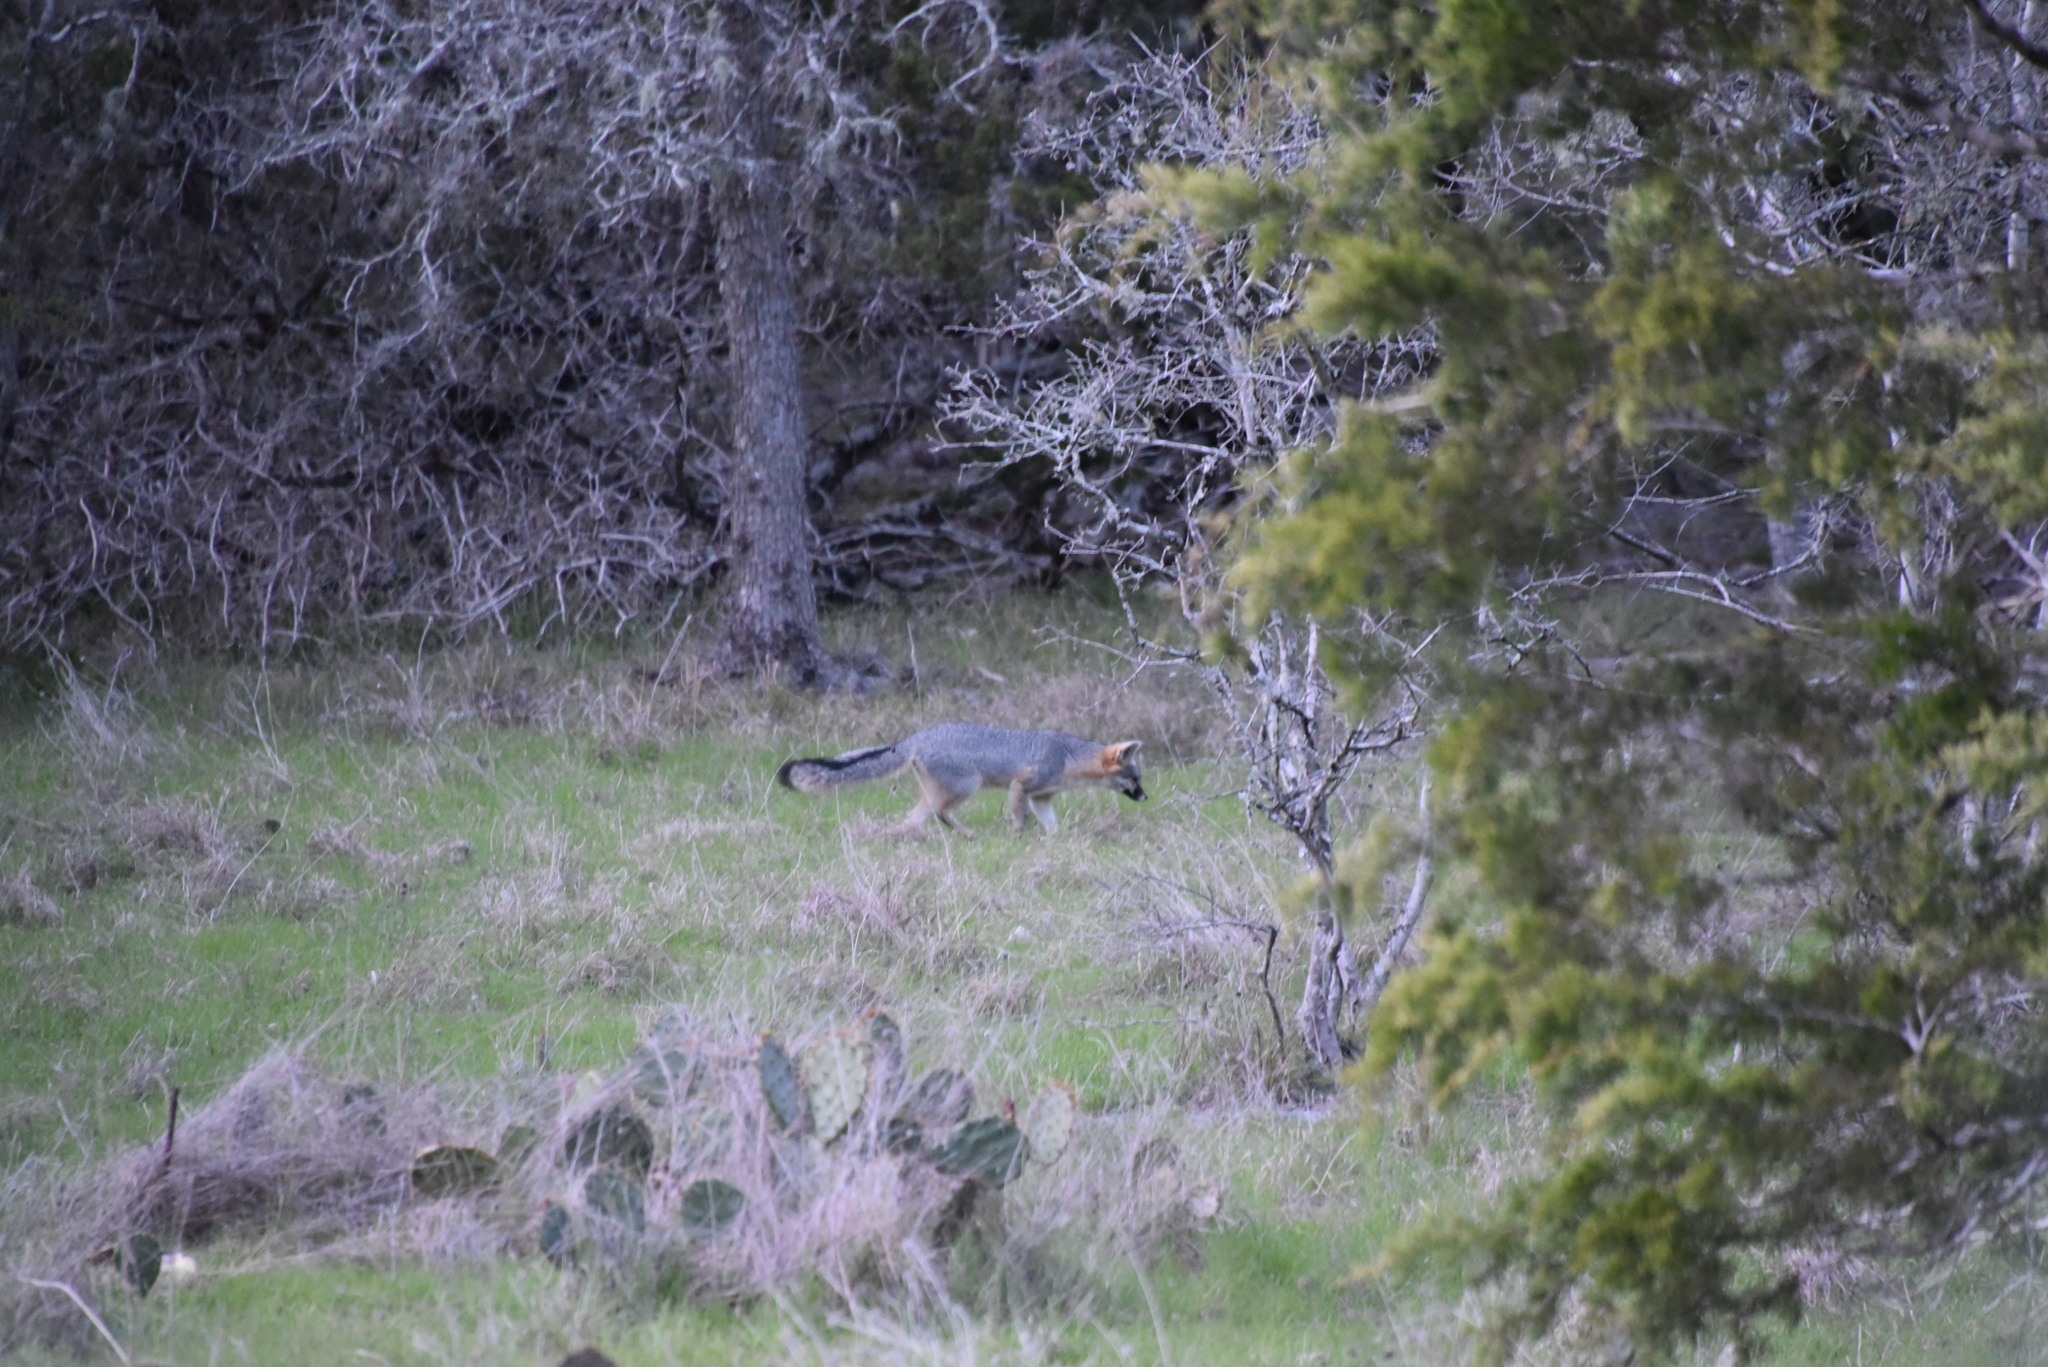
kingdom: Animalia
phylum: Chordata
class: Mammalia
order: Carnivora
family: Canidae
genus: Urocyon
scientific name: Urocyon cinereoargenteus
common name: Gray fox
